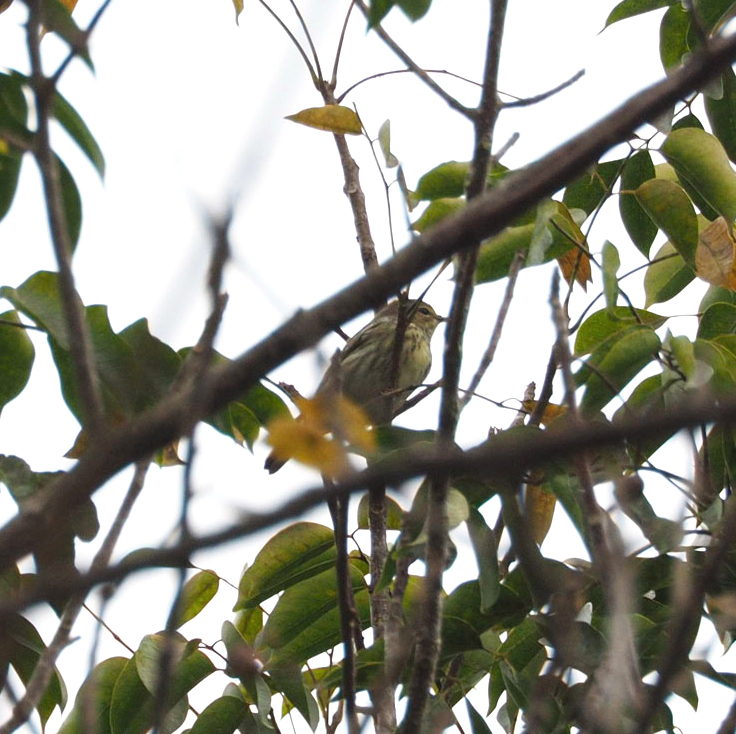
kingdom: Animalia
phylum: Chordata
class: Aves
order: Passeriformes
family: Parulidae
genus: Setophaga
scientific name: Setophaga tigrina
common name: Cape may warbler
